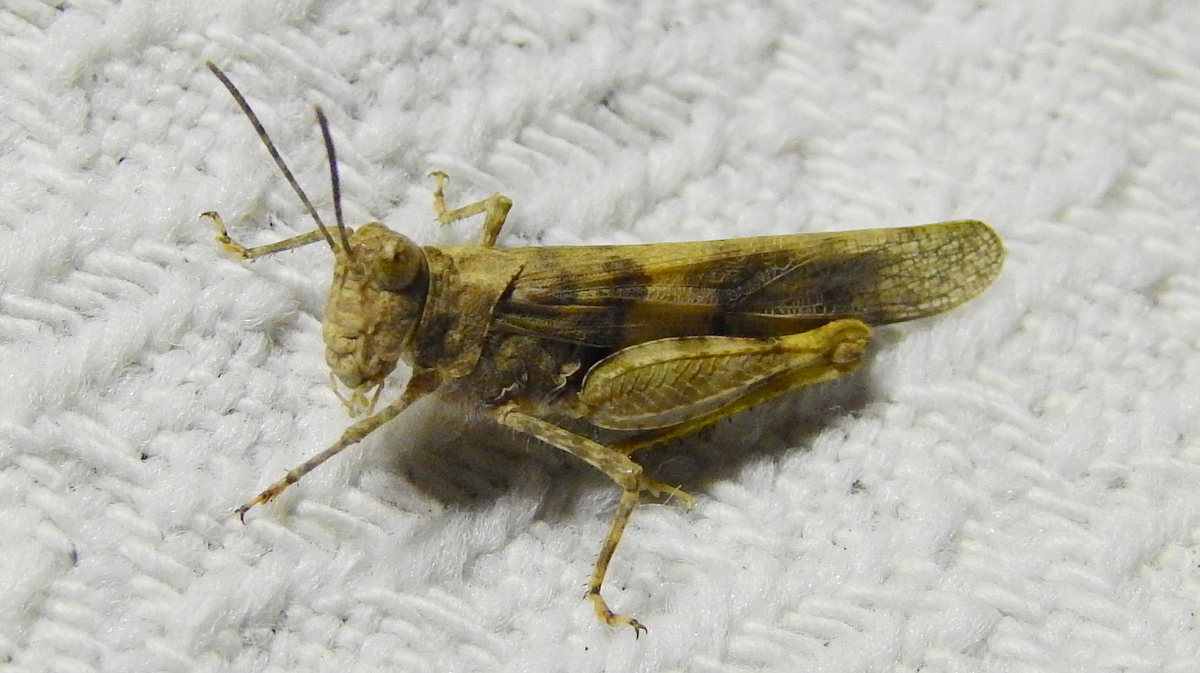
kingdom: Animalia
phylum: Arthropoda
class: Insecta
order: Orthoptera
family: Acrididae
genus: Trimerotropis
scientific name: Trimerotropis pallidipennis
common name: Pallid-winged grasshopper
